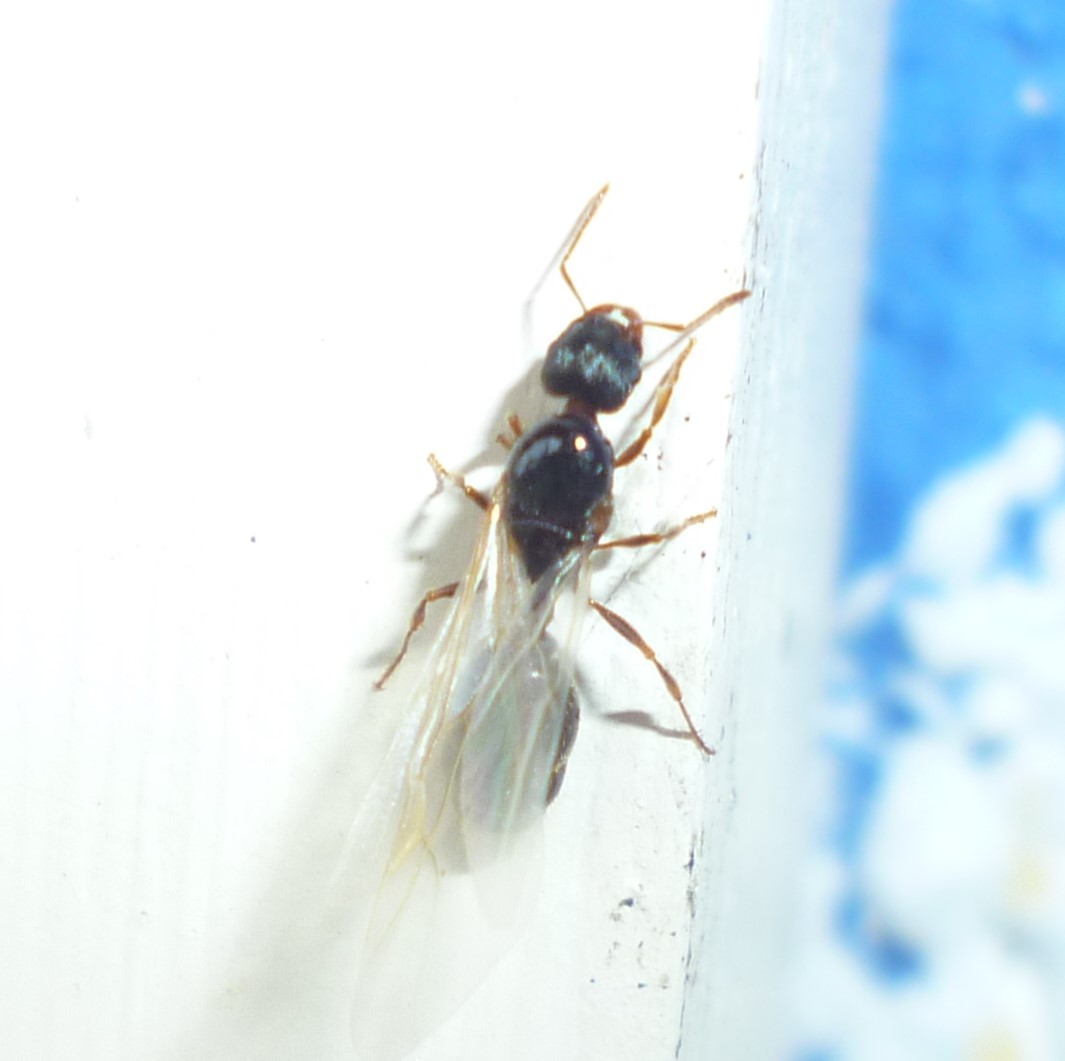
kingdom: Animalia
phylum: Arthropoda
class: Insecta
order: Hymenoptera
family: Formicidae
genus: Tetramorium
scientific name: Tetramorium immigrans
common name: Pavement ant
